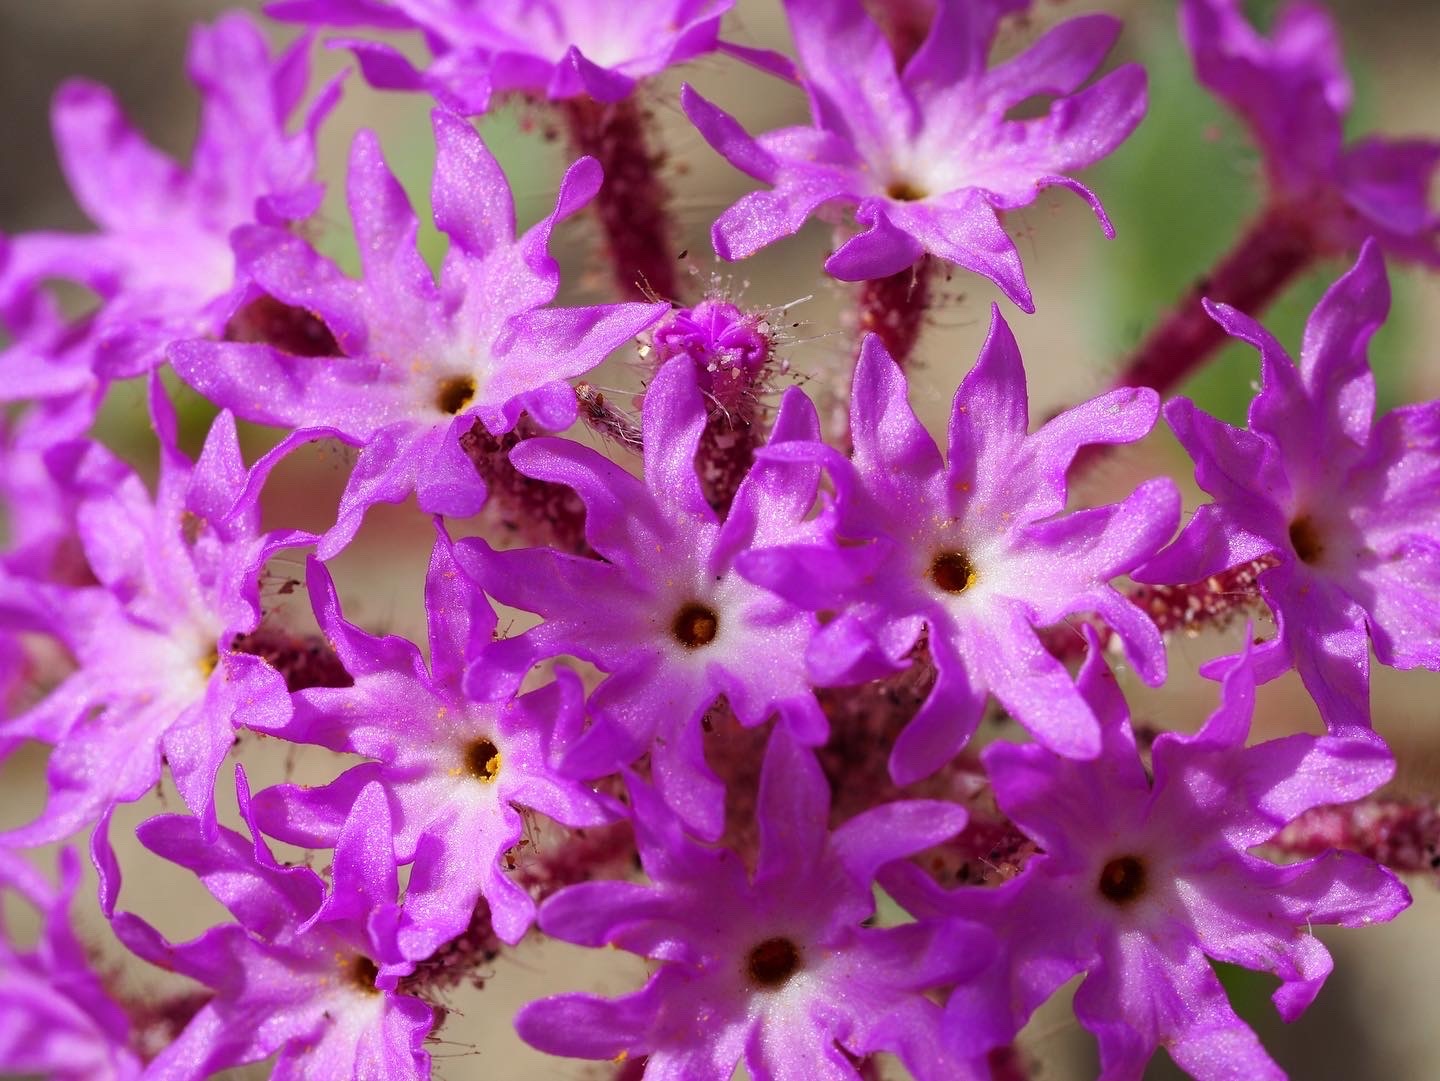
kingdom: Plantae
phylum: Tracheophyta
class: Magnoliopsida
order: Caryophyllales
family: Nyctaginaceae
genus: Abronia
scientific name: Abronia villosa
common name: Desert sand-verbena
